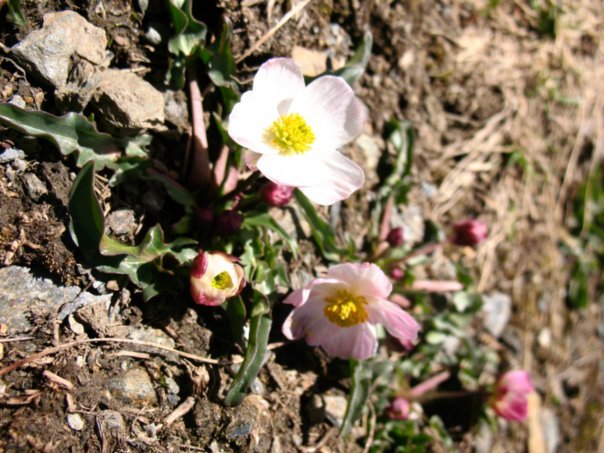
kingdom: Plantae
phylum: Tracheophyta
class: Magnoliopsida
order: Ranunculales
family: Ranunculaceae
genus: Ranunculus
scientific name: Ranunculus acetosellifolius
